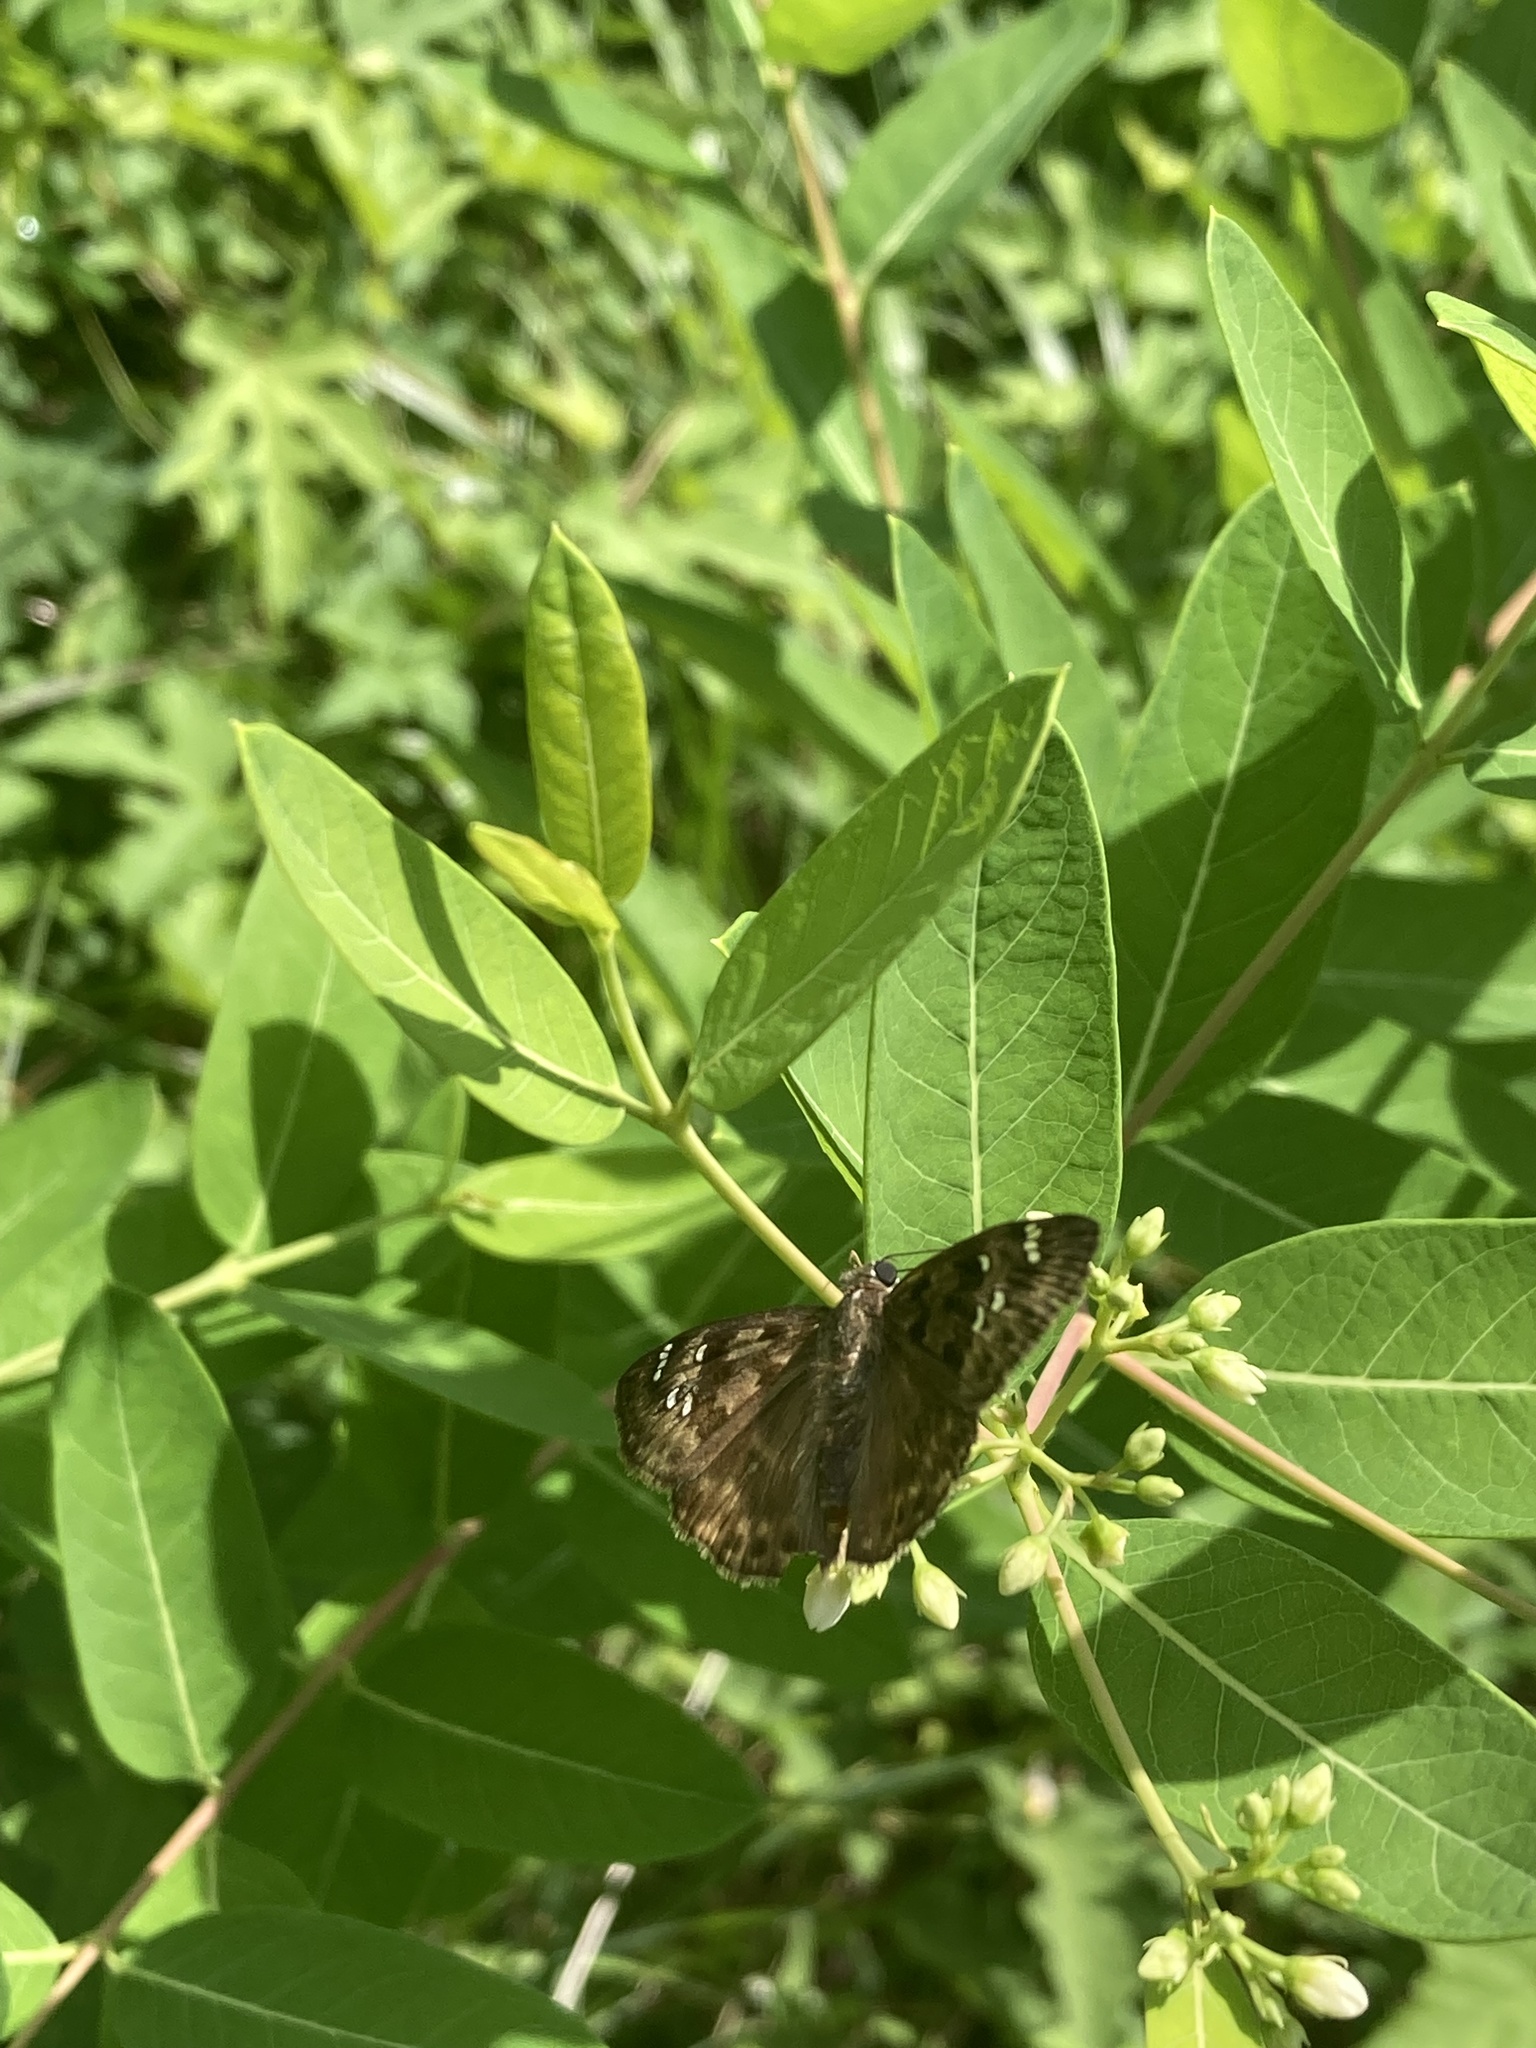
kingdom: Animalia
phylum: Arthropoda
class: Insecta
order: Lepidoptera
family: Hesperiidae
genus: Erynnis
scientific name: Erynnis horatius
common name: Horace's duskywing
